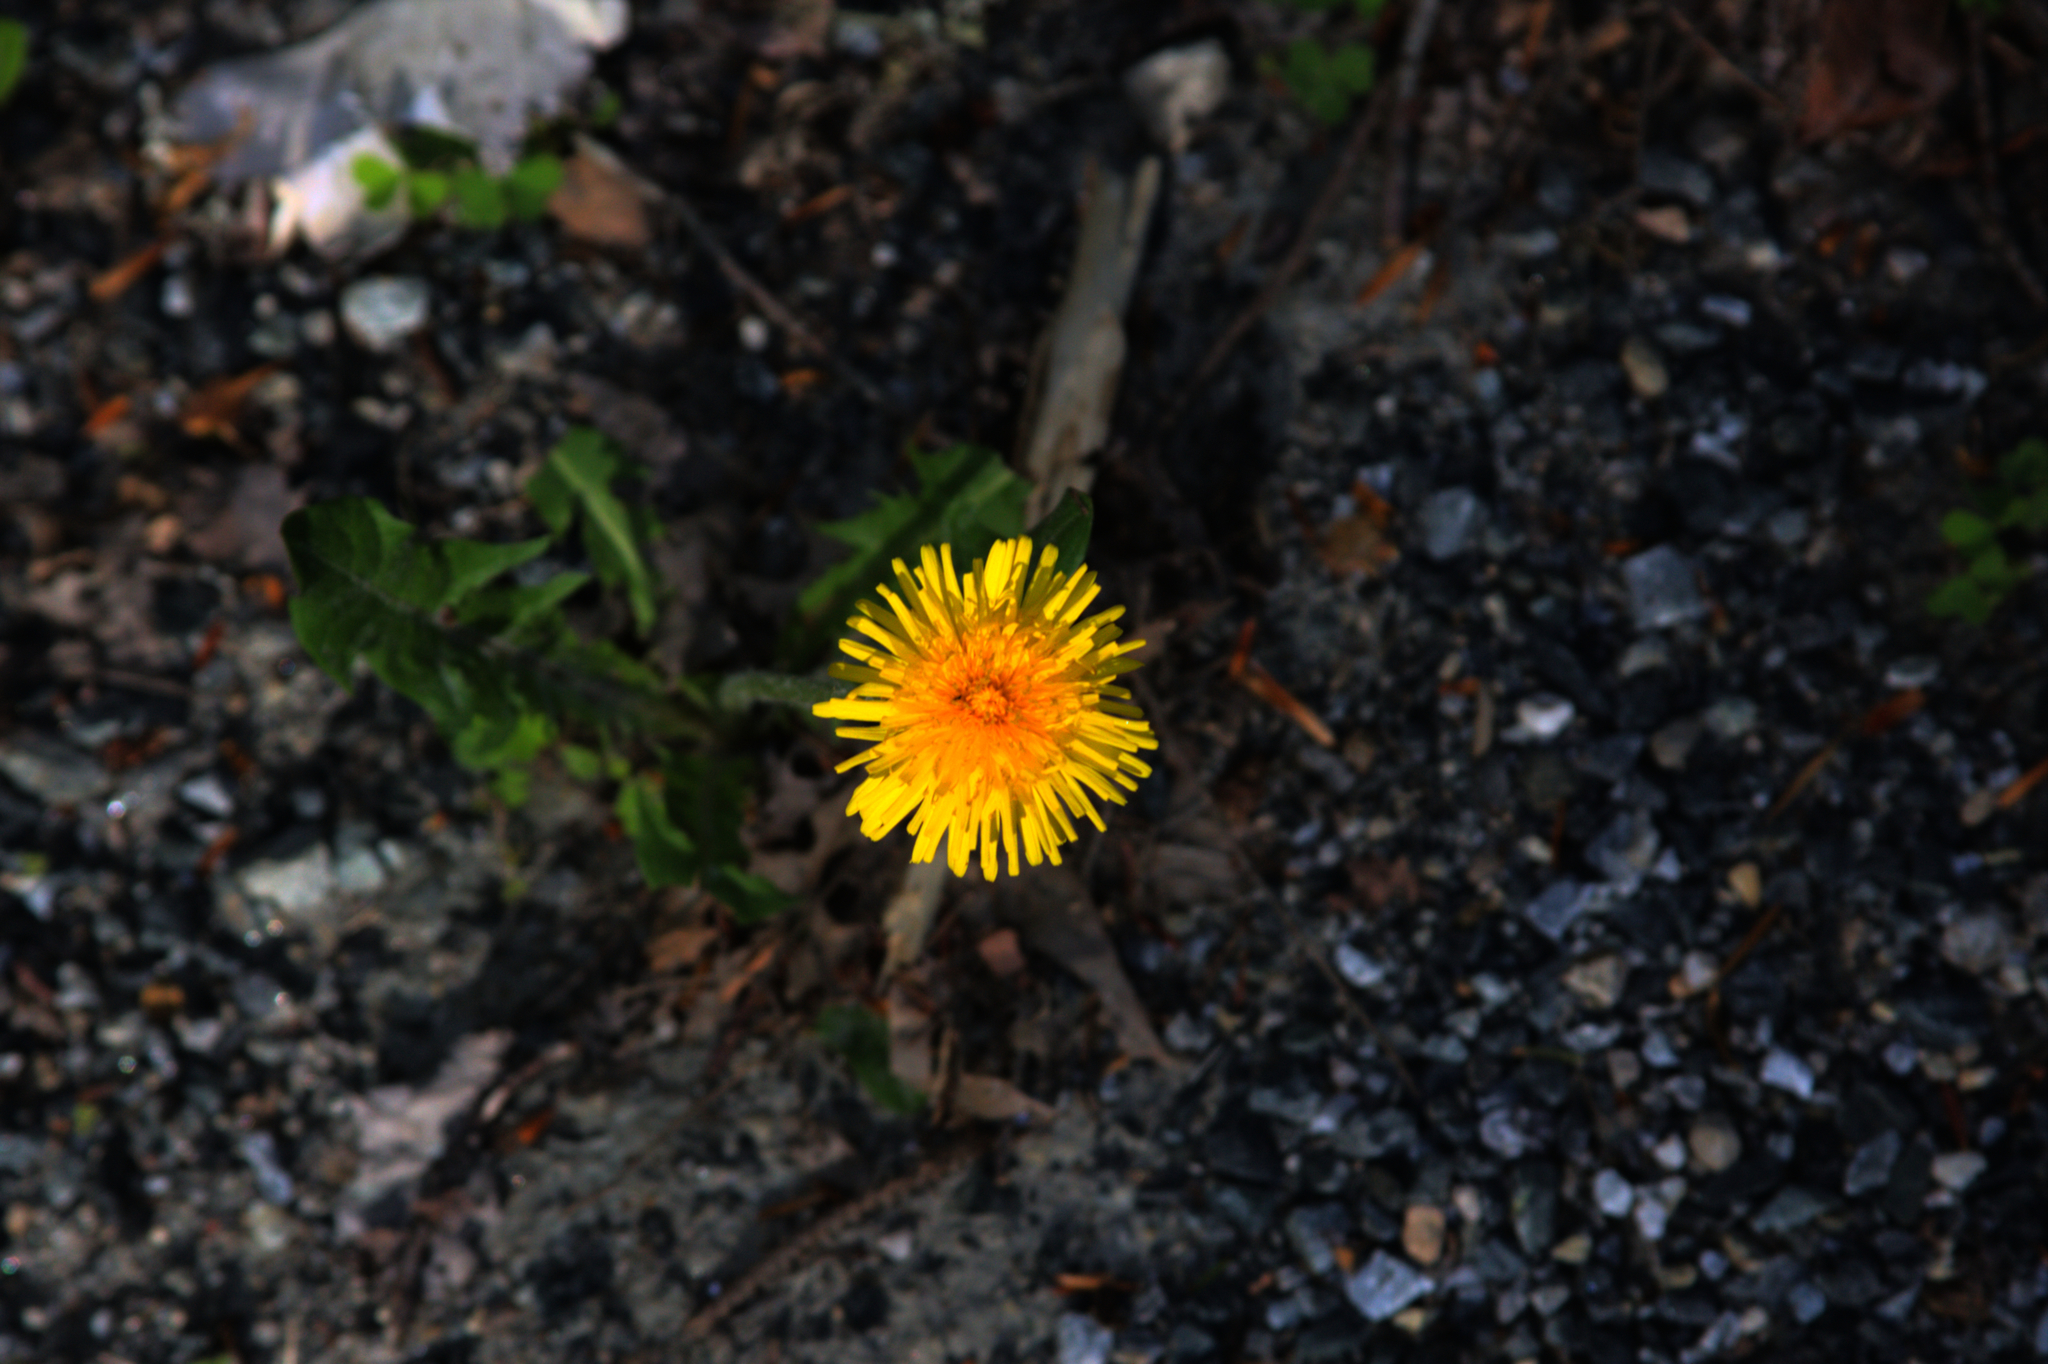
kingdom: Plantae
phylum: Tracheophyta
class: Magnoliopsida
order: Asterales
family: Asteraceae
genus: Taraxacum
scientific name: Taraxacum officinale
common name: Common dandelion
